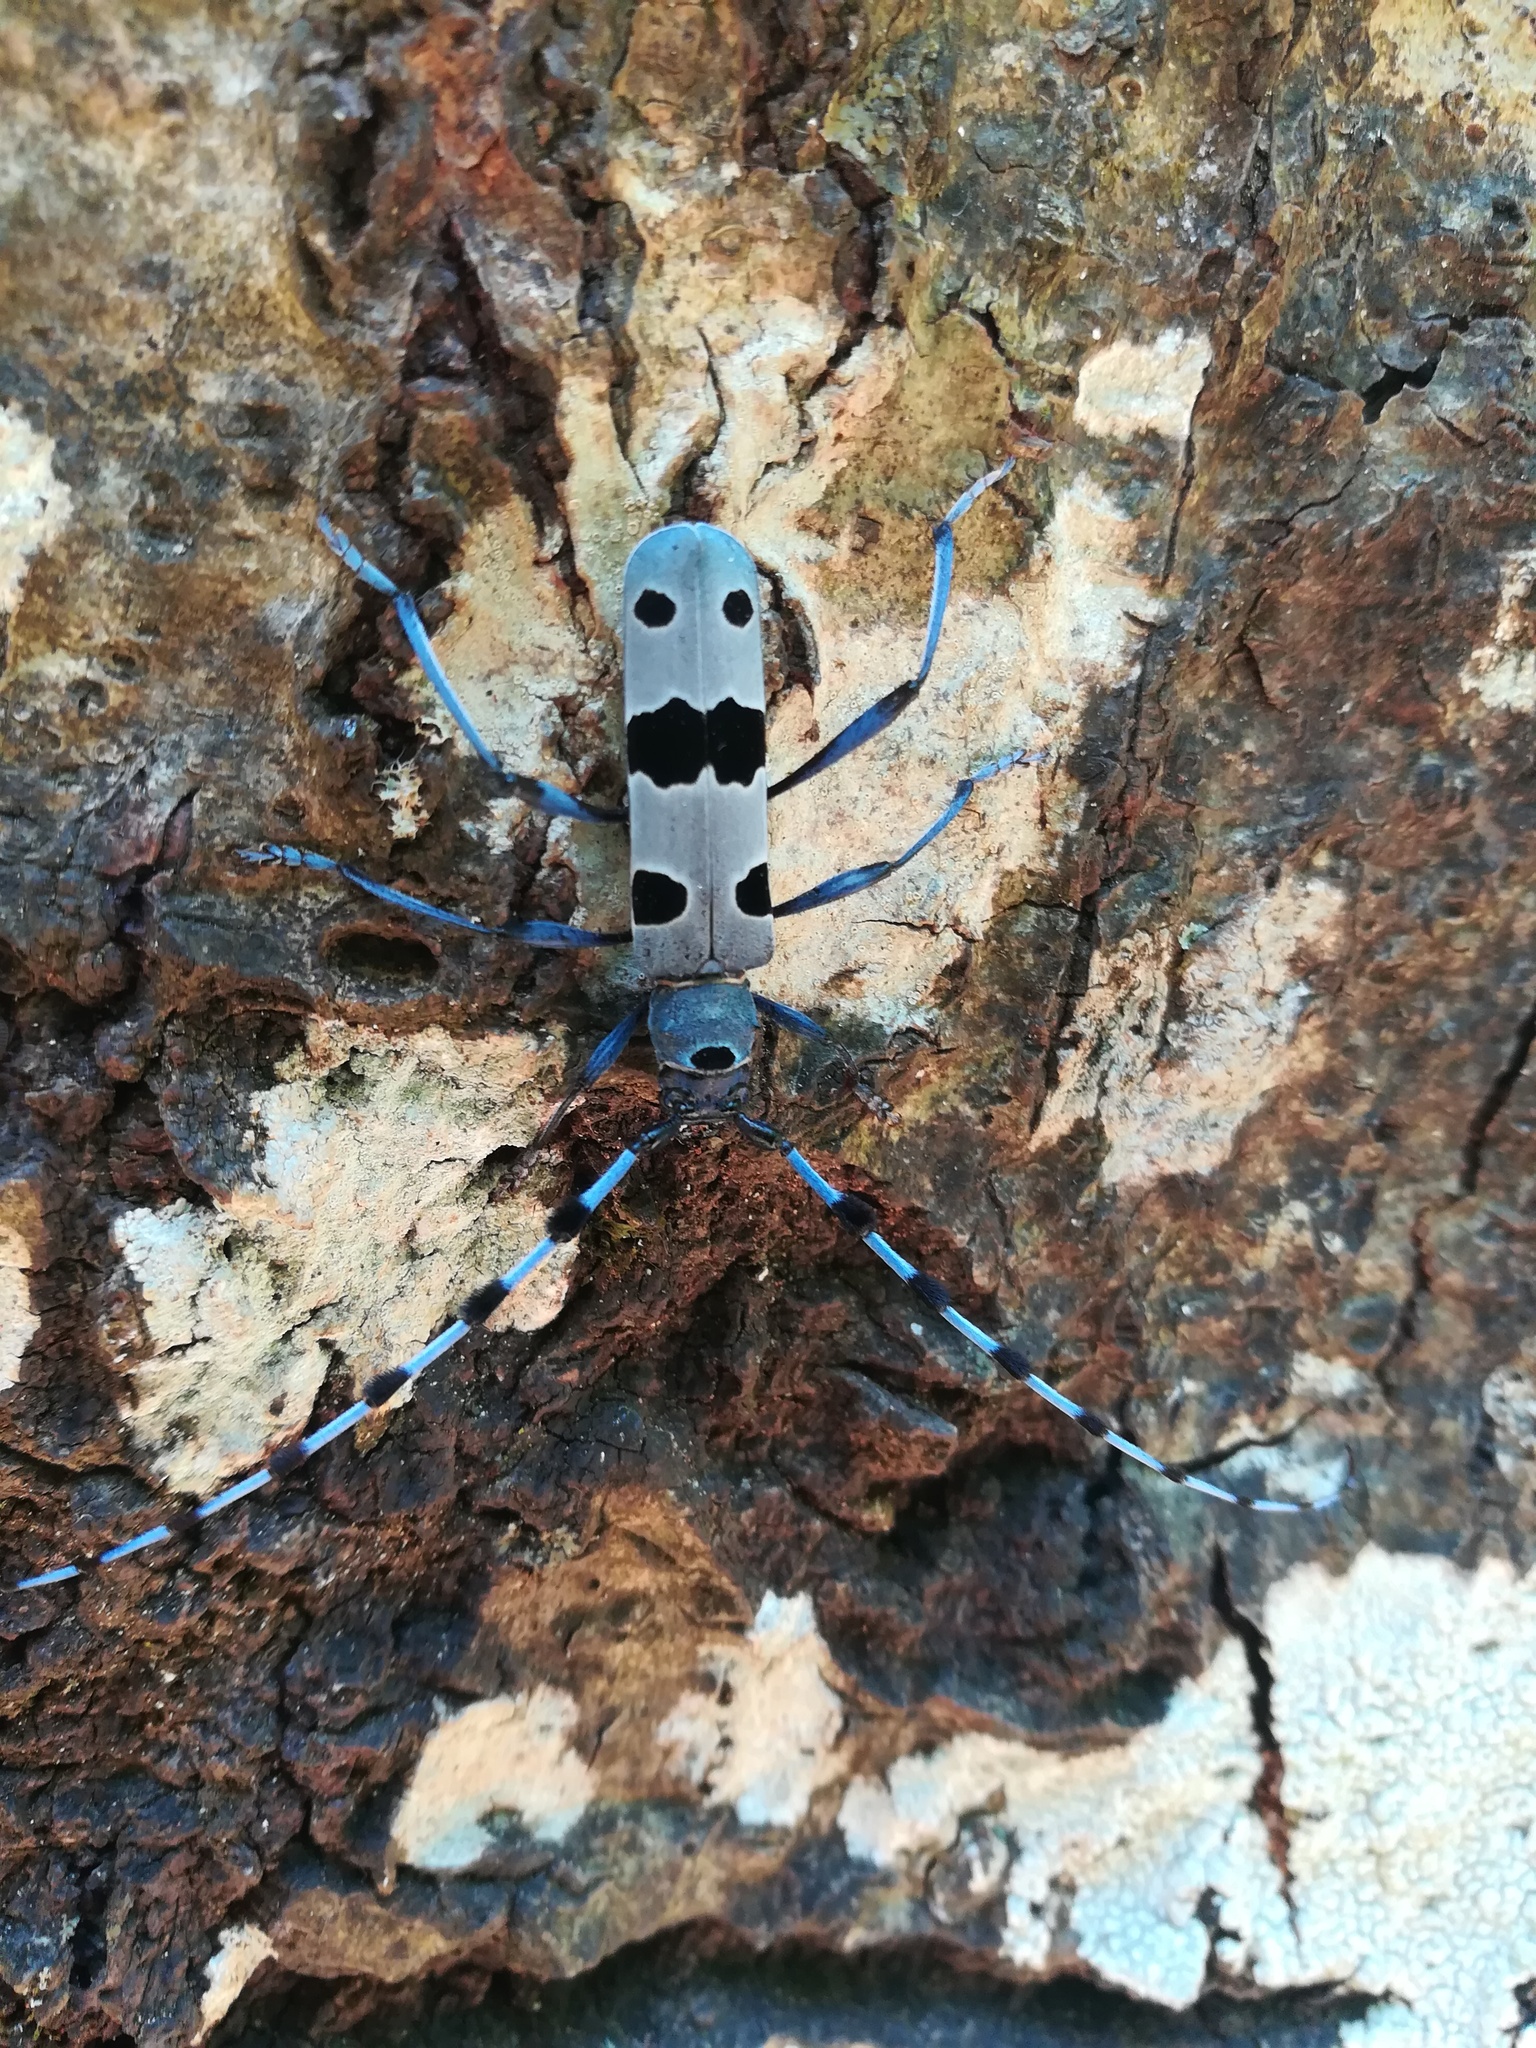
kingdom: Animalia
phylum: Arthropoda
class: Insecta
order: Coleoptera
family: Cerambycidae
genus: Rosalia
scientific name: Rosalia alpina
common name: Rosalia longicorn
